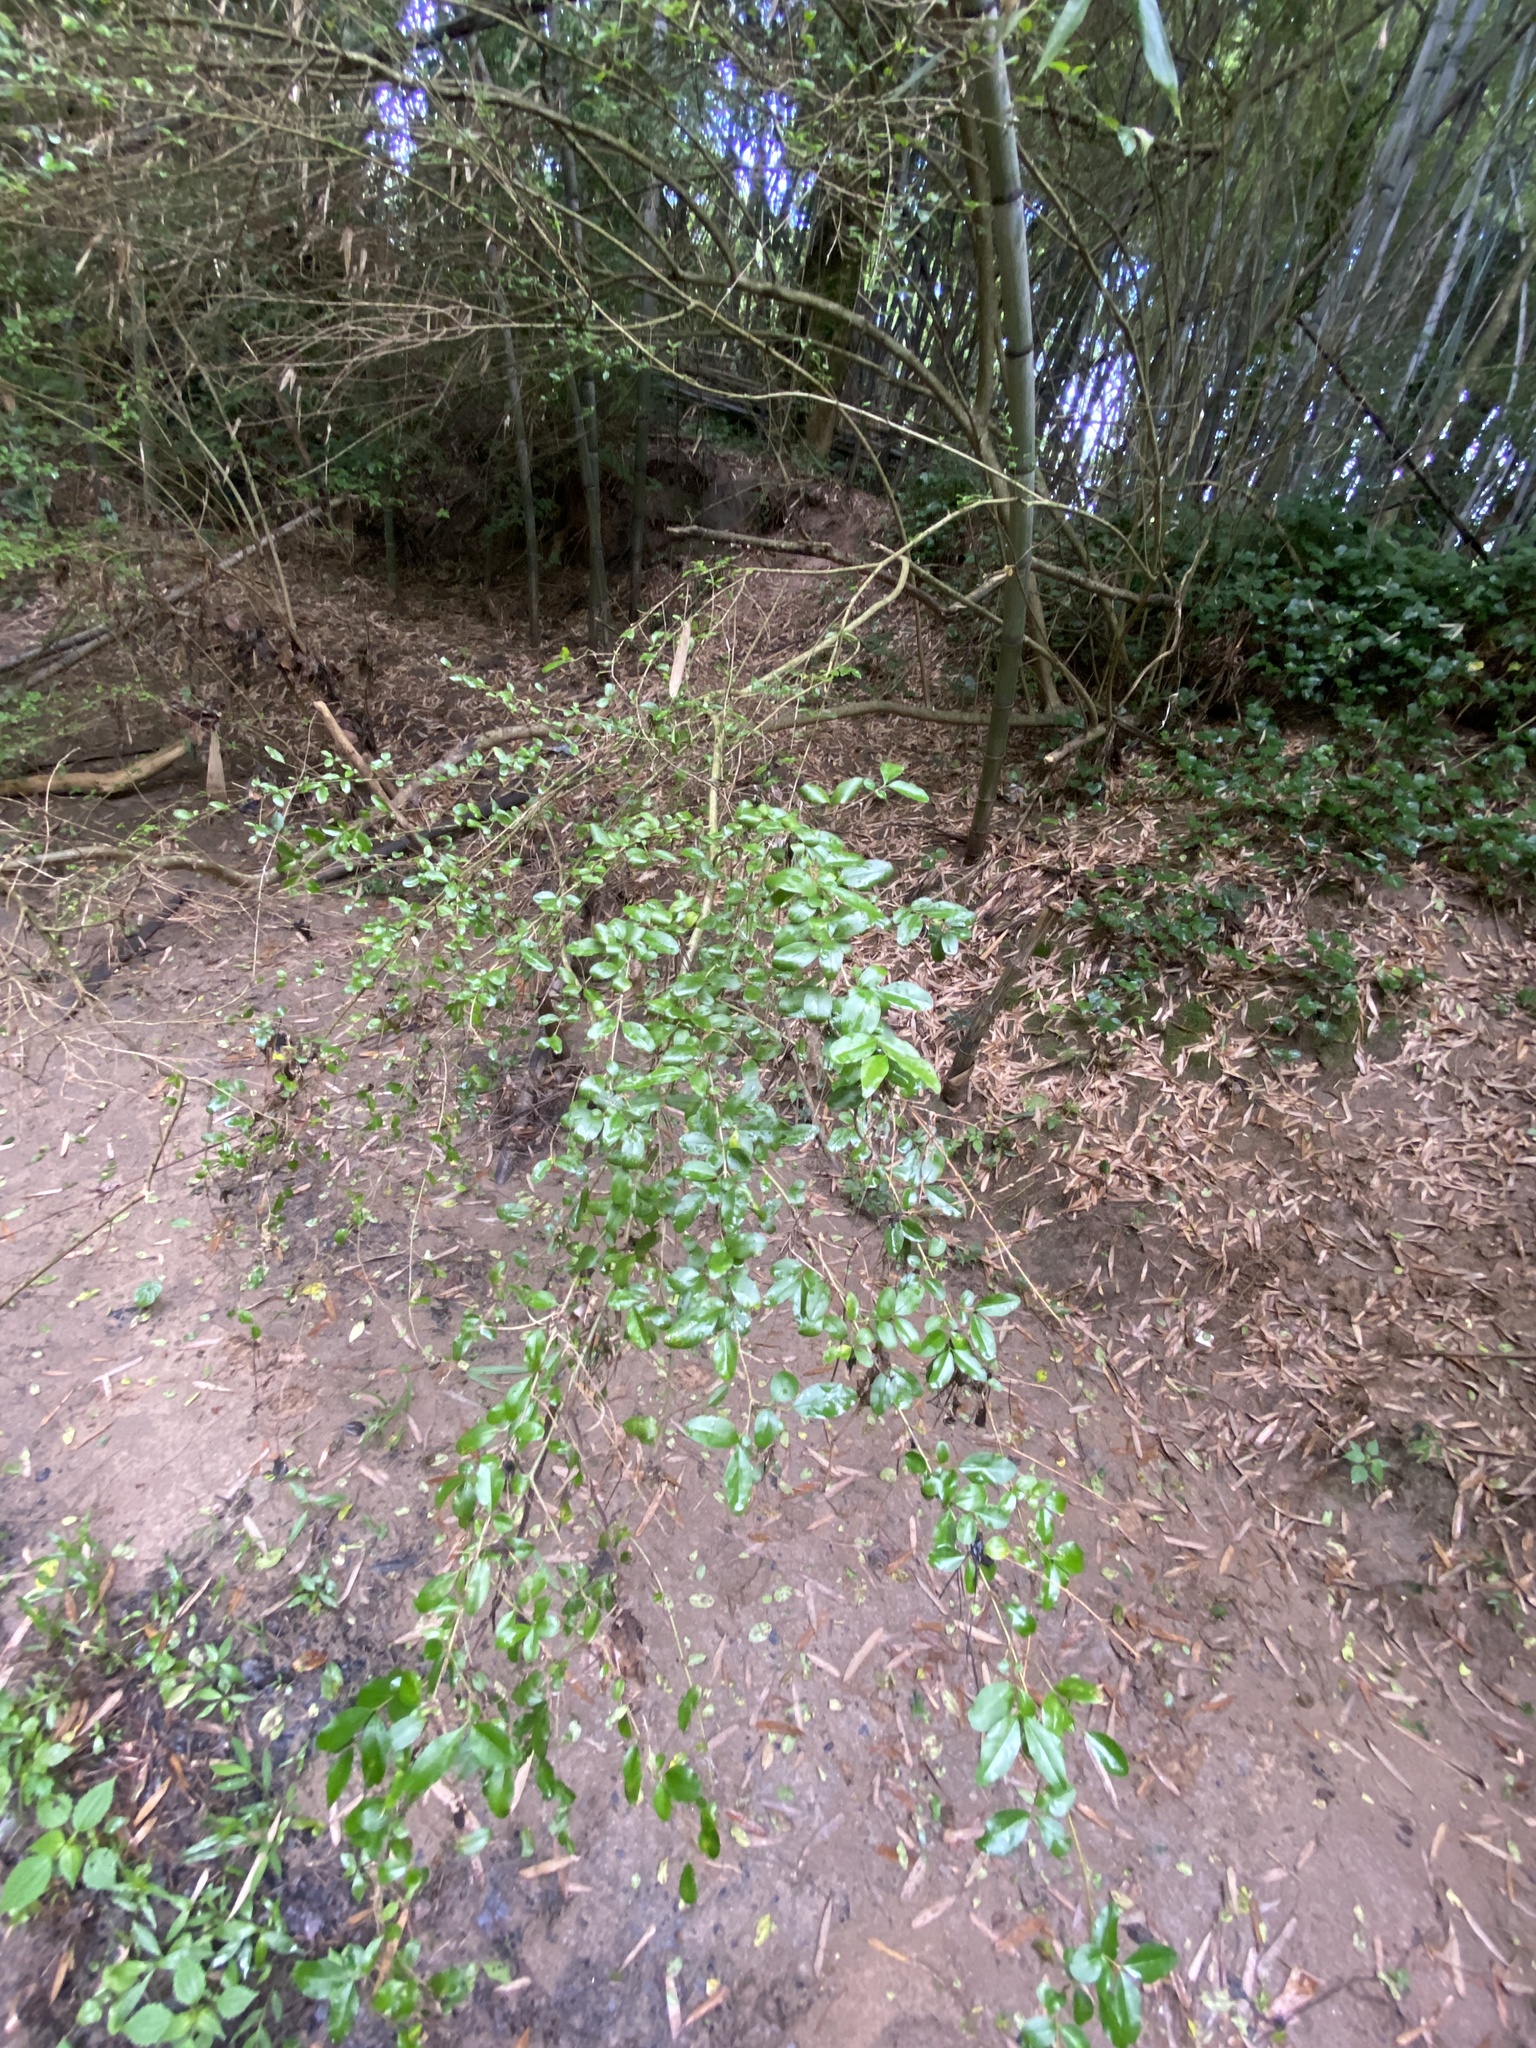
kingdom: Plantae
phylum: Tracheophyta
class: Magnoliopsida
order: Lamiales
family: Oleaceae
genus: Ligustrum
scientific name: Ligustrum sinense
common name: Chinese privet
